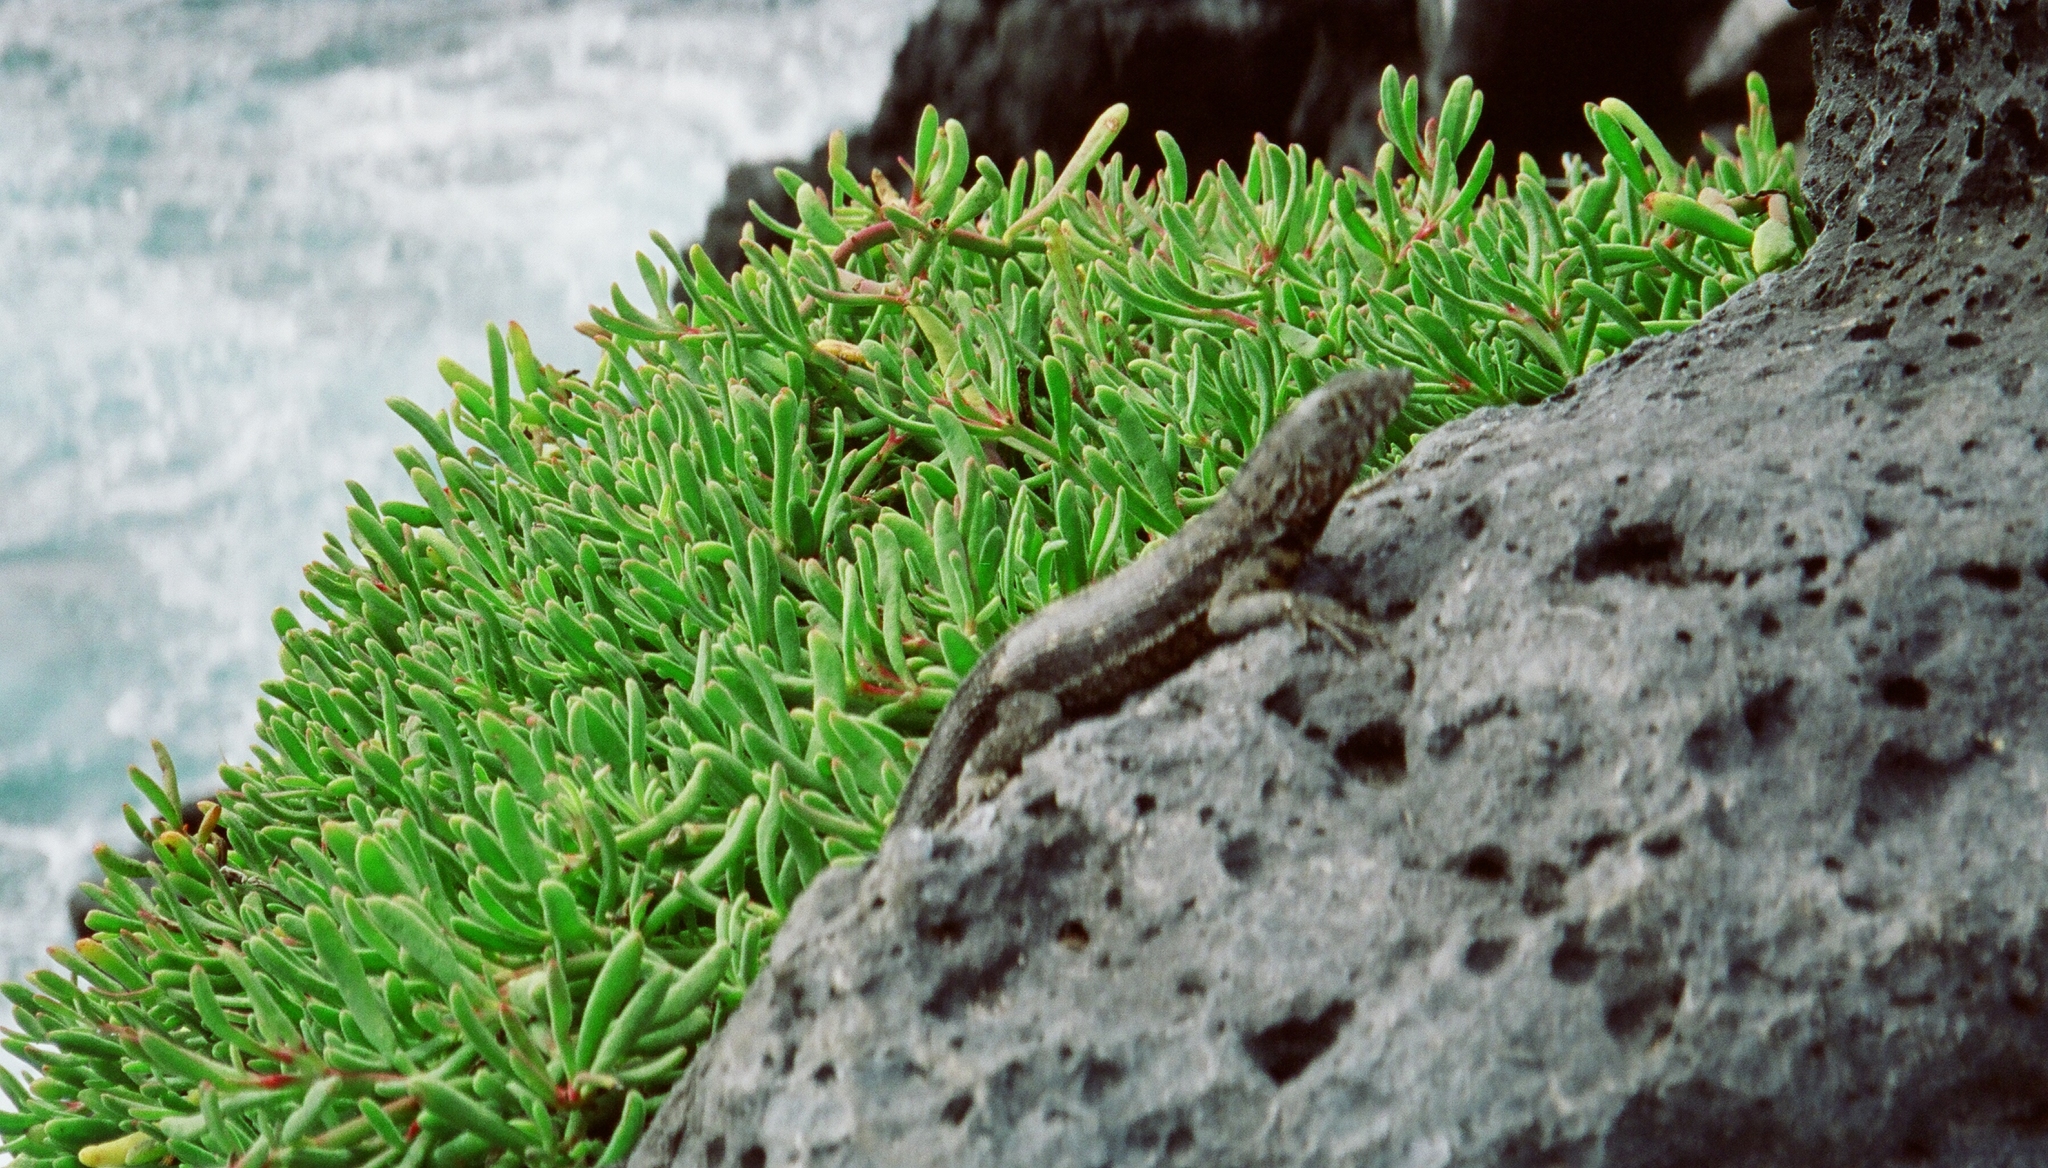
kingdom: Animalia
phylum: Chordata
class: Squamata
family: Tropiduridae
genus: Microlophus
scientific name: Microlophus indefatigabilis
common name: Galapagos lava lizard
